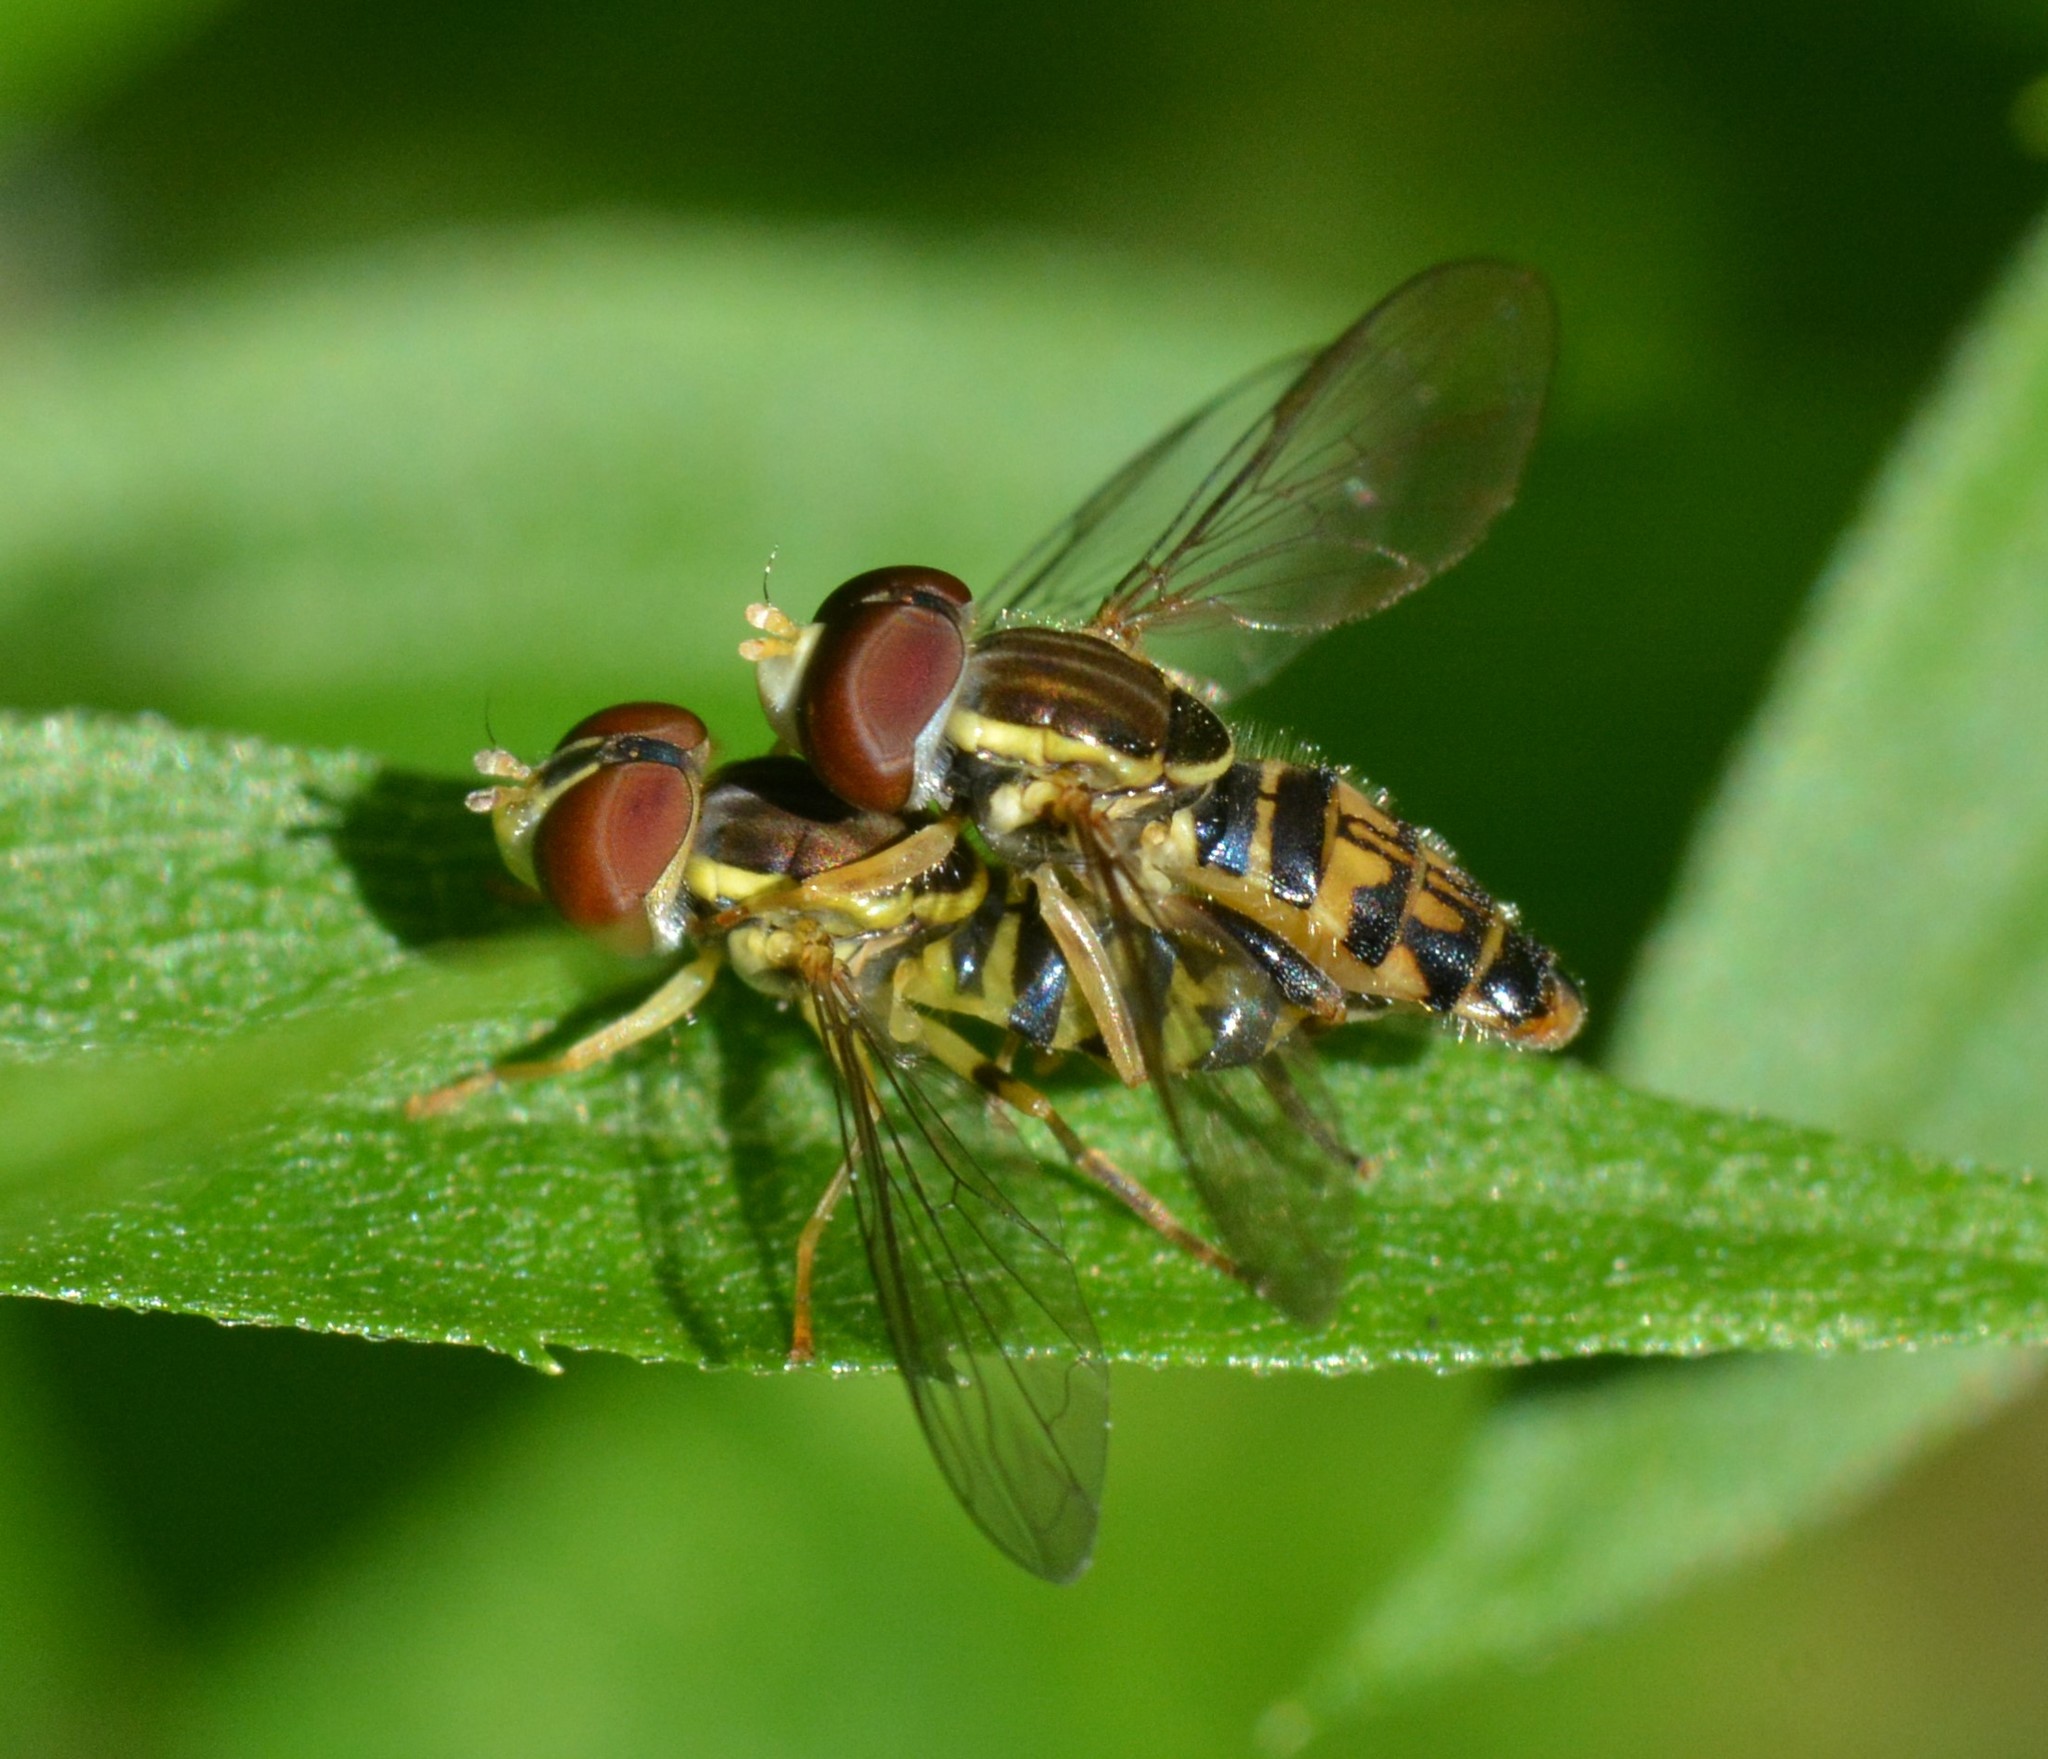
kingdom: Animalia
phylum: Arthropoda
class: Insecta
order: Diptera
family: Syrphidae
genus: Toxomerus
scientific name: Toxomerus geminatus
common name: Eastern calligrapher
